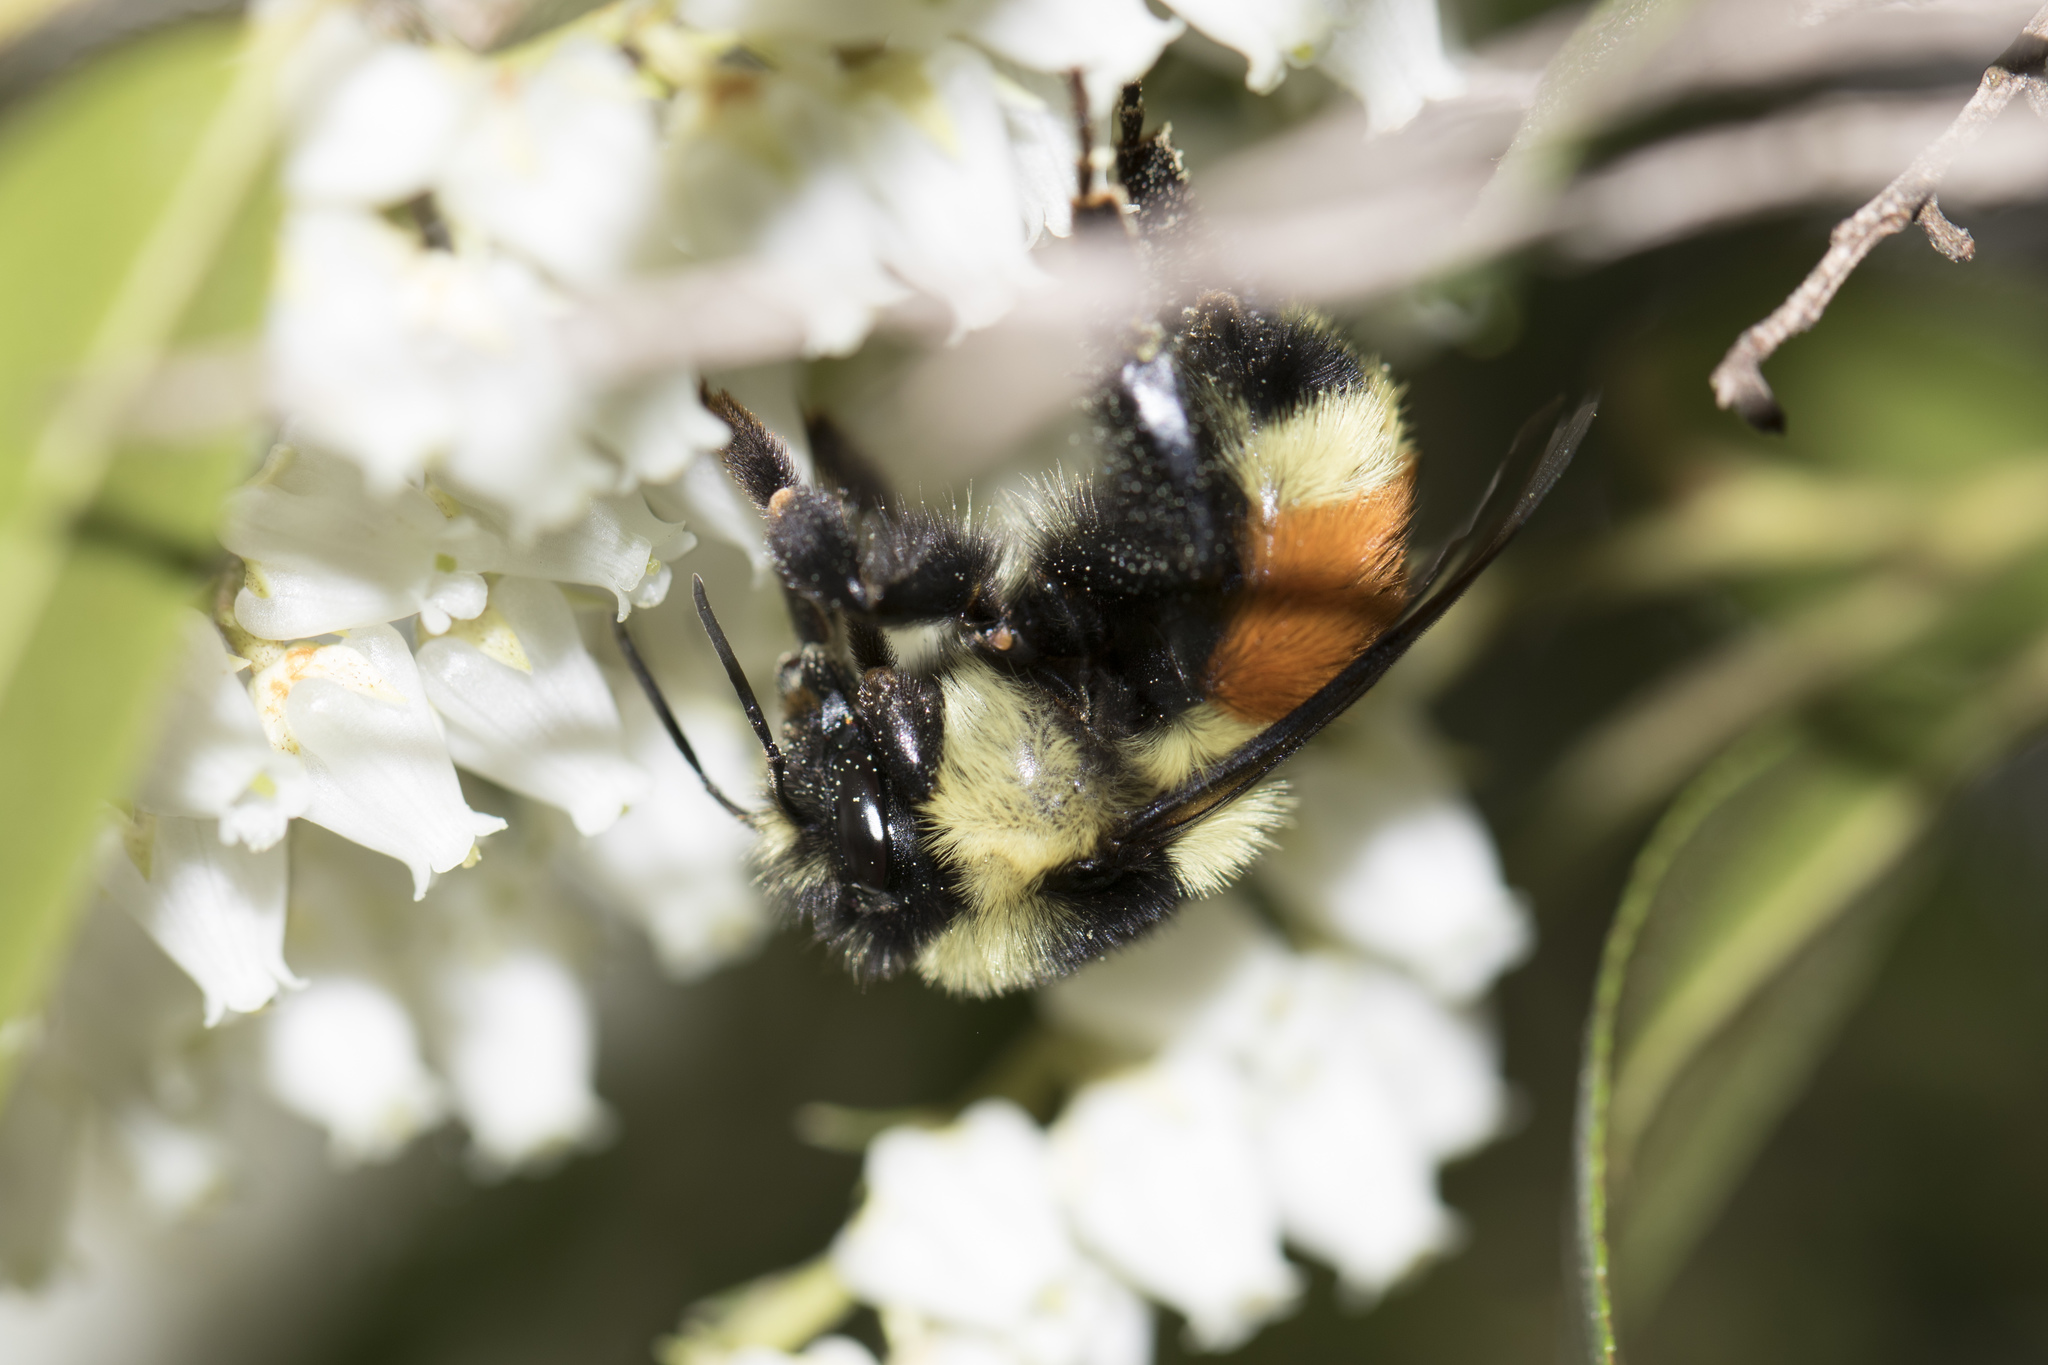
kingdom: Animalia
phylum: Arthropoda
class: Insecta
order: Hymenoptera
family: Apidae
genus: Bombus
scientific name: Bombus ternarius
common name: Tri-colored bumble bee
